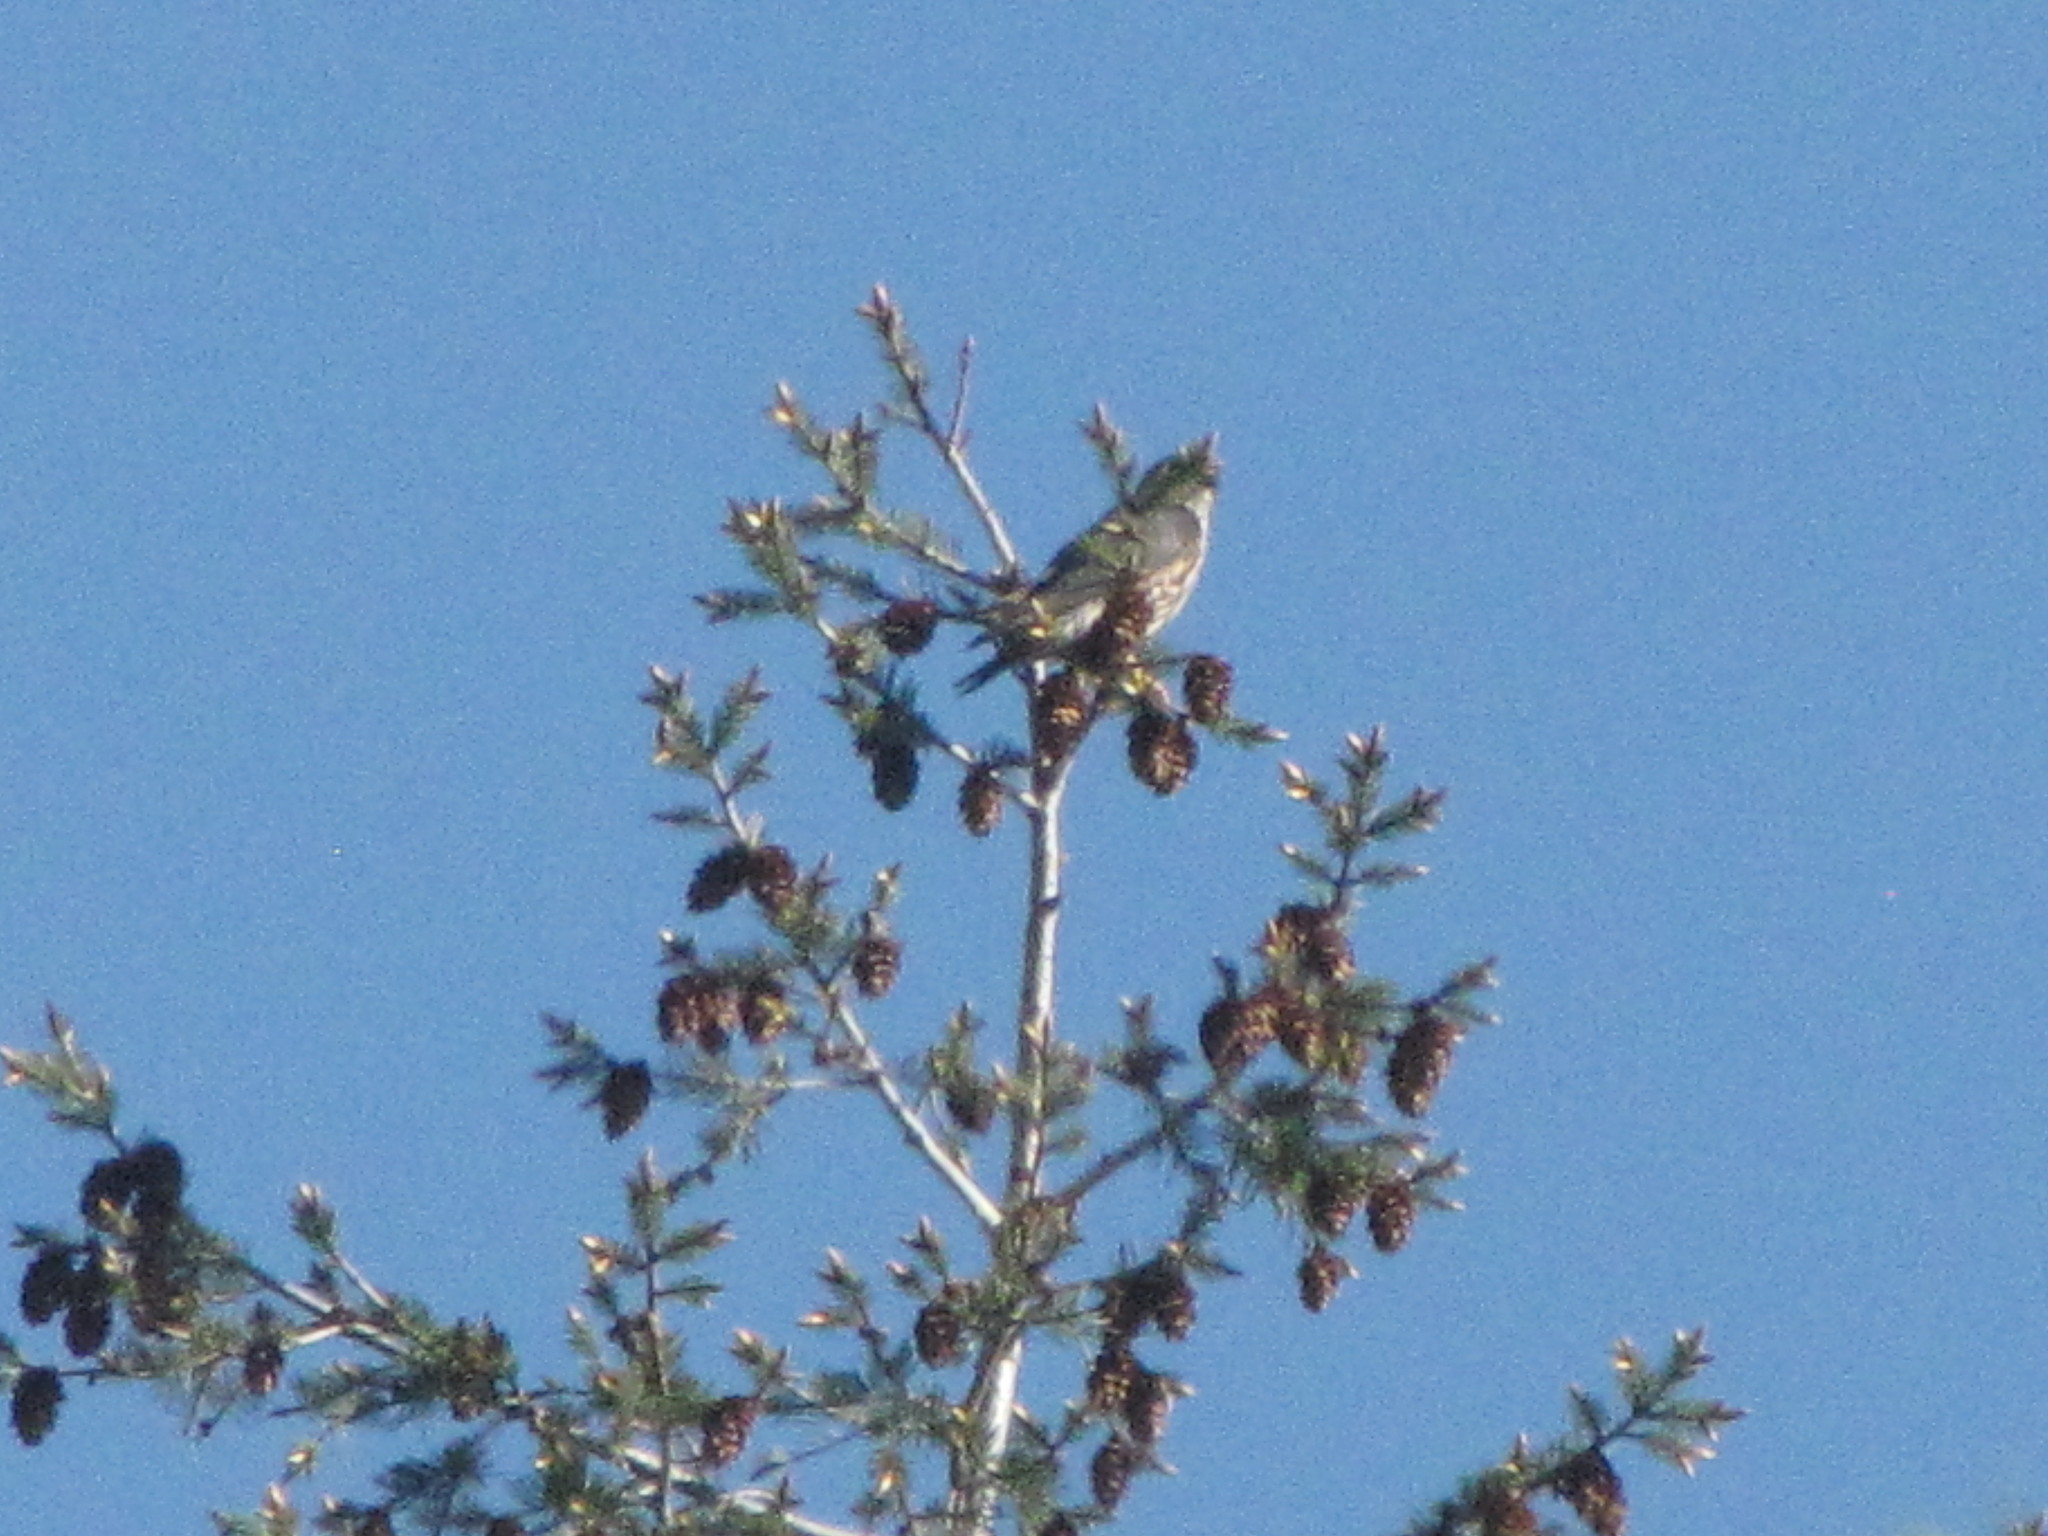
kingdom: Animalia
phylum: Chordata
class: Aves
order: Falconiformes
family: Falconidae
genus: Falco
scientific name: Falco columbarius
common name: Merlin
